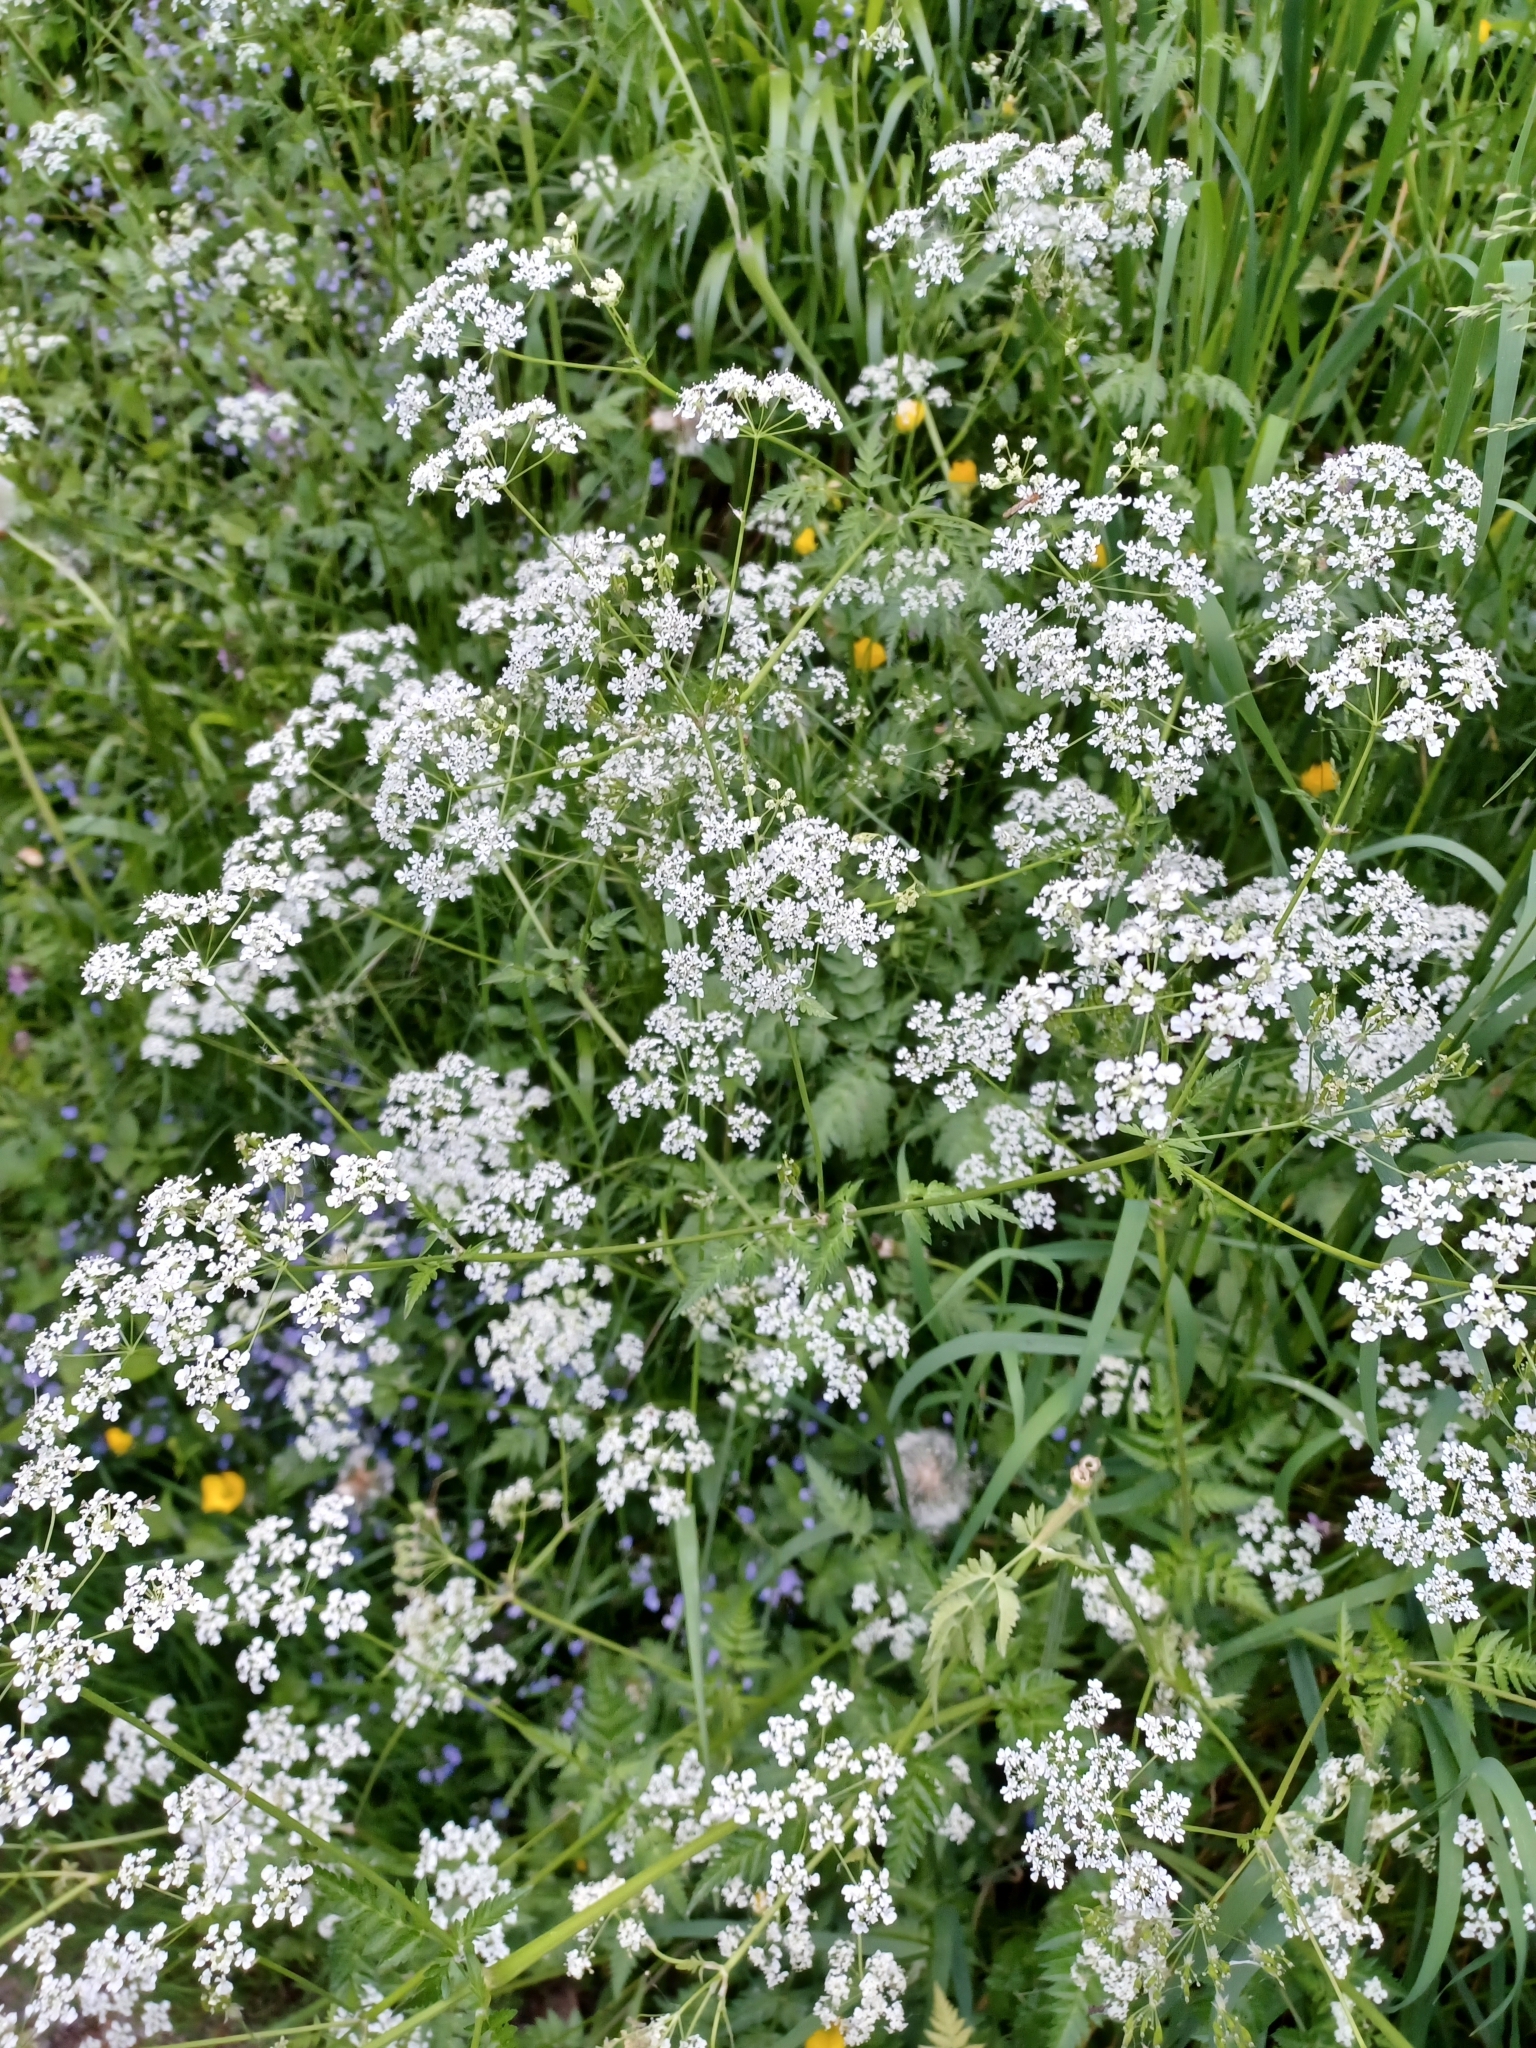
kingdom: Plantae
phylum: Tracheophyta
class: Magnoliopsida
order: Apiales
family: Apiaceae
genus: Anthriscus
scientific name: Anthriscus sylvestris
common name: Cow parsley
